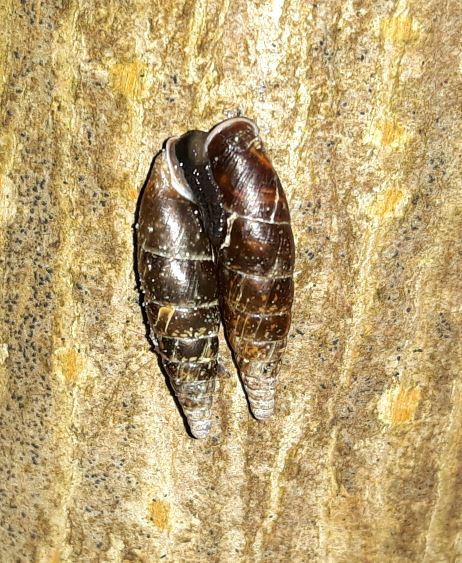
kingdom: Animalia
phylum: Mollusca
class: Gastropoda
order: Stylommatophora
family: Clausiliidae
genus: Cochlodina
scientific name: Cochlodina laminata
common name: Plaited door snail
